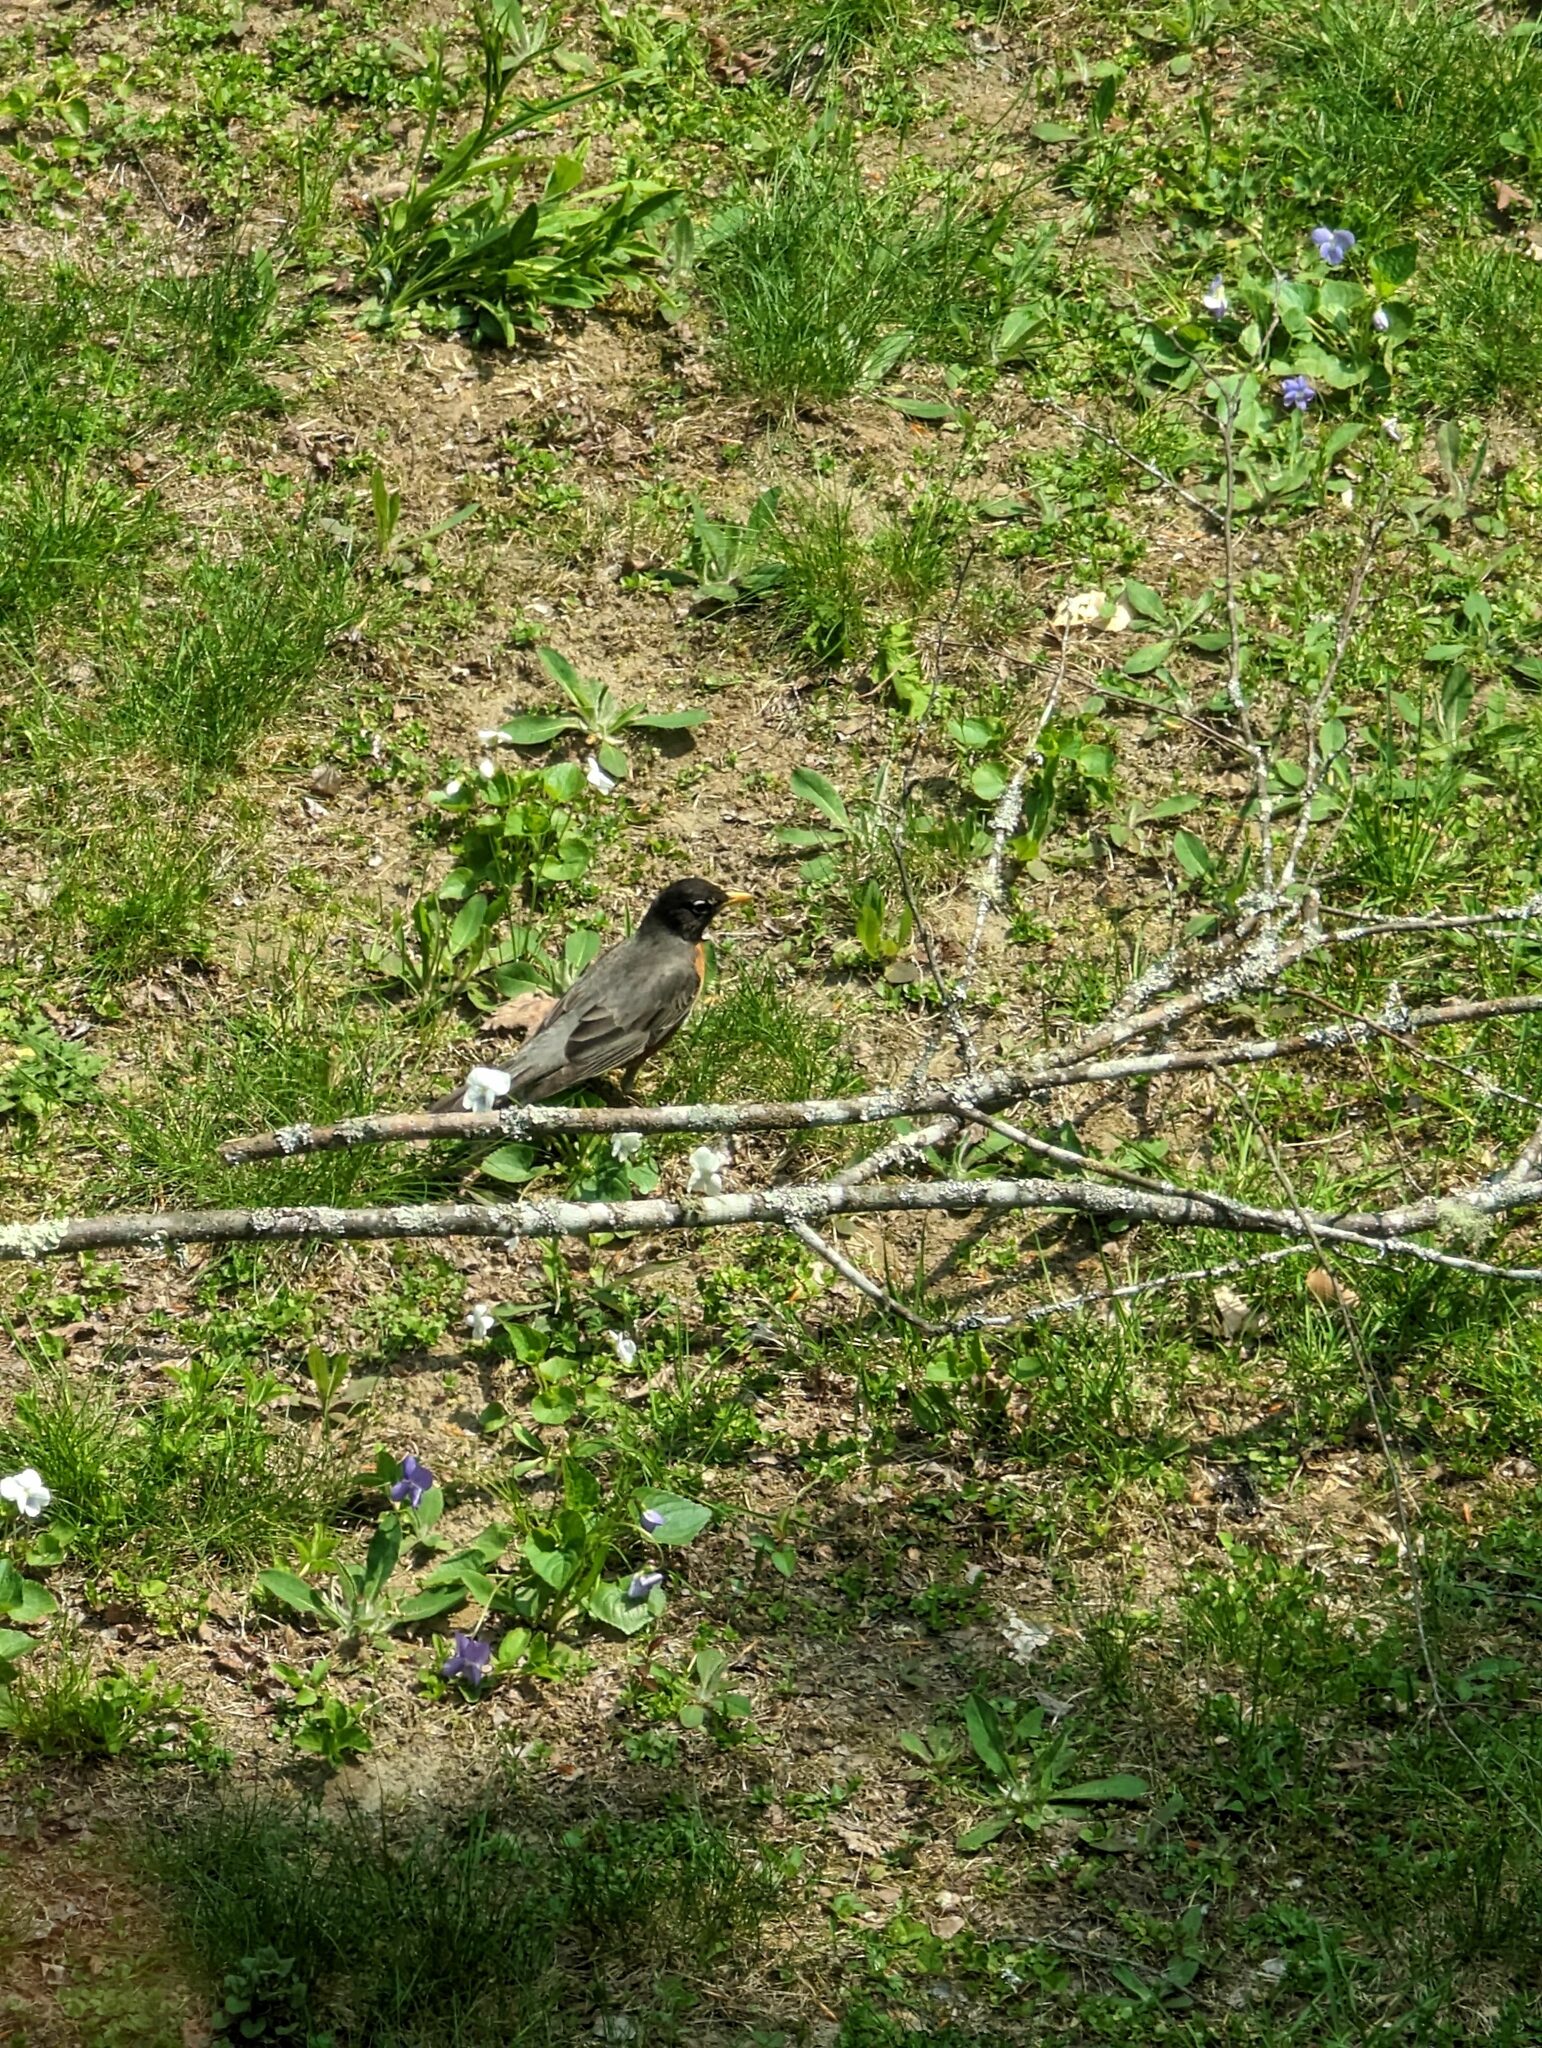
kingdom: Animalia
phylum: Chordata
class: Aves
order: Passeriformes
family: Turdidae
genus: Turdus
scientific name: Turdus migratorius
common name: American robin
